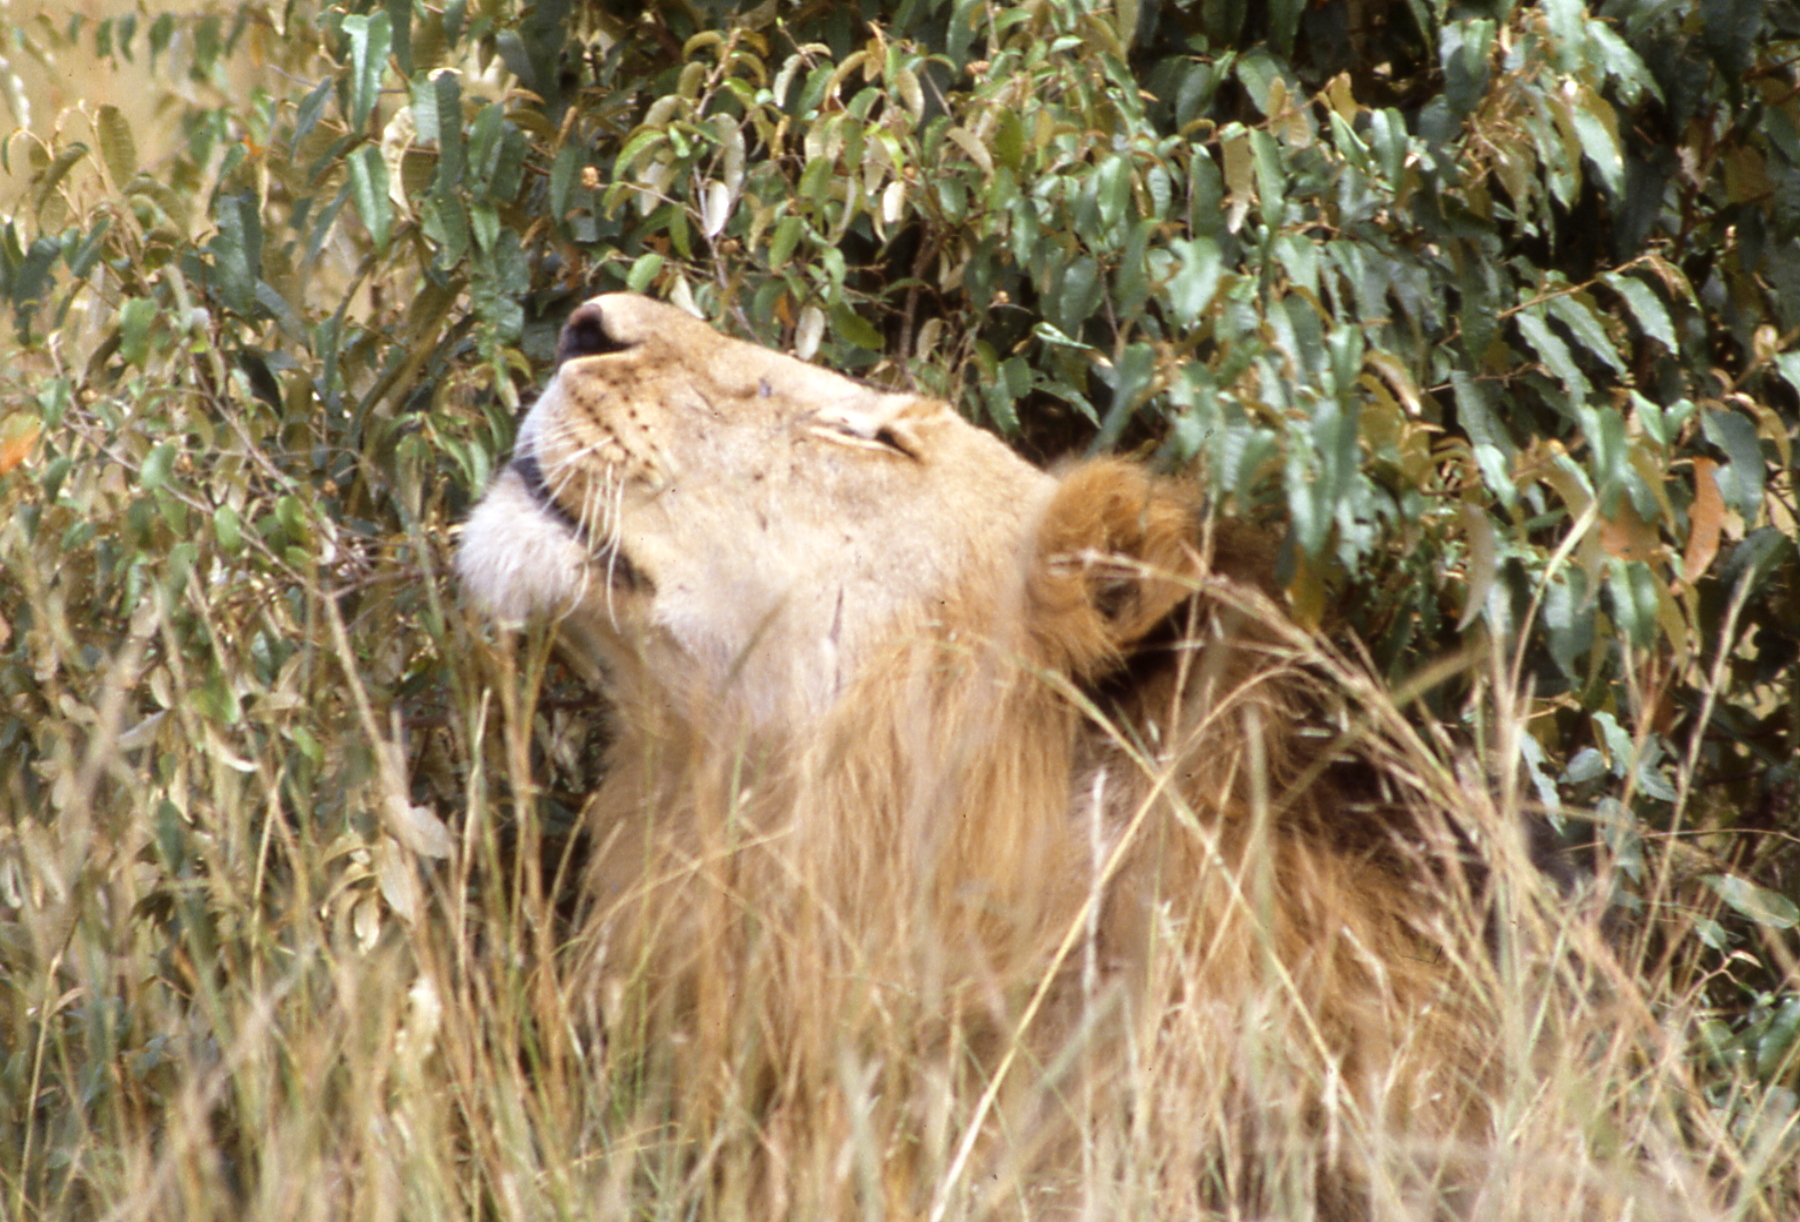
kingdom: Animalia
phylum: Chordata
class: Mammalia
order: Carnivora
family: Felidae
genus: Panthera
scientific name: Panthera leo
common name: Lion
